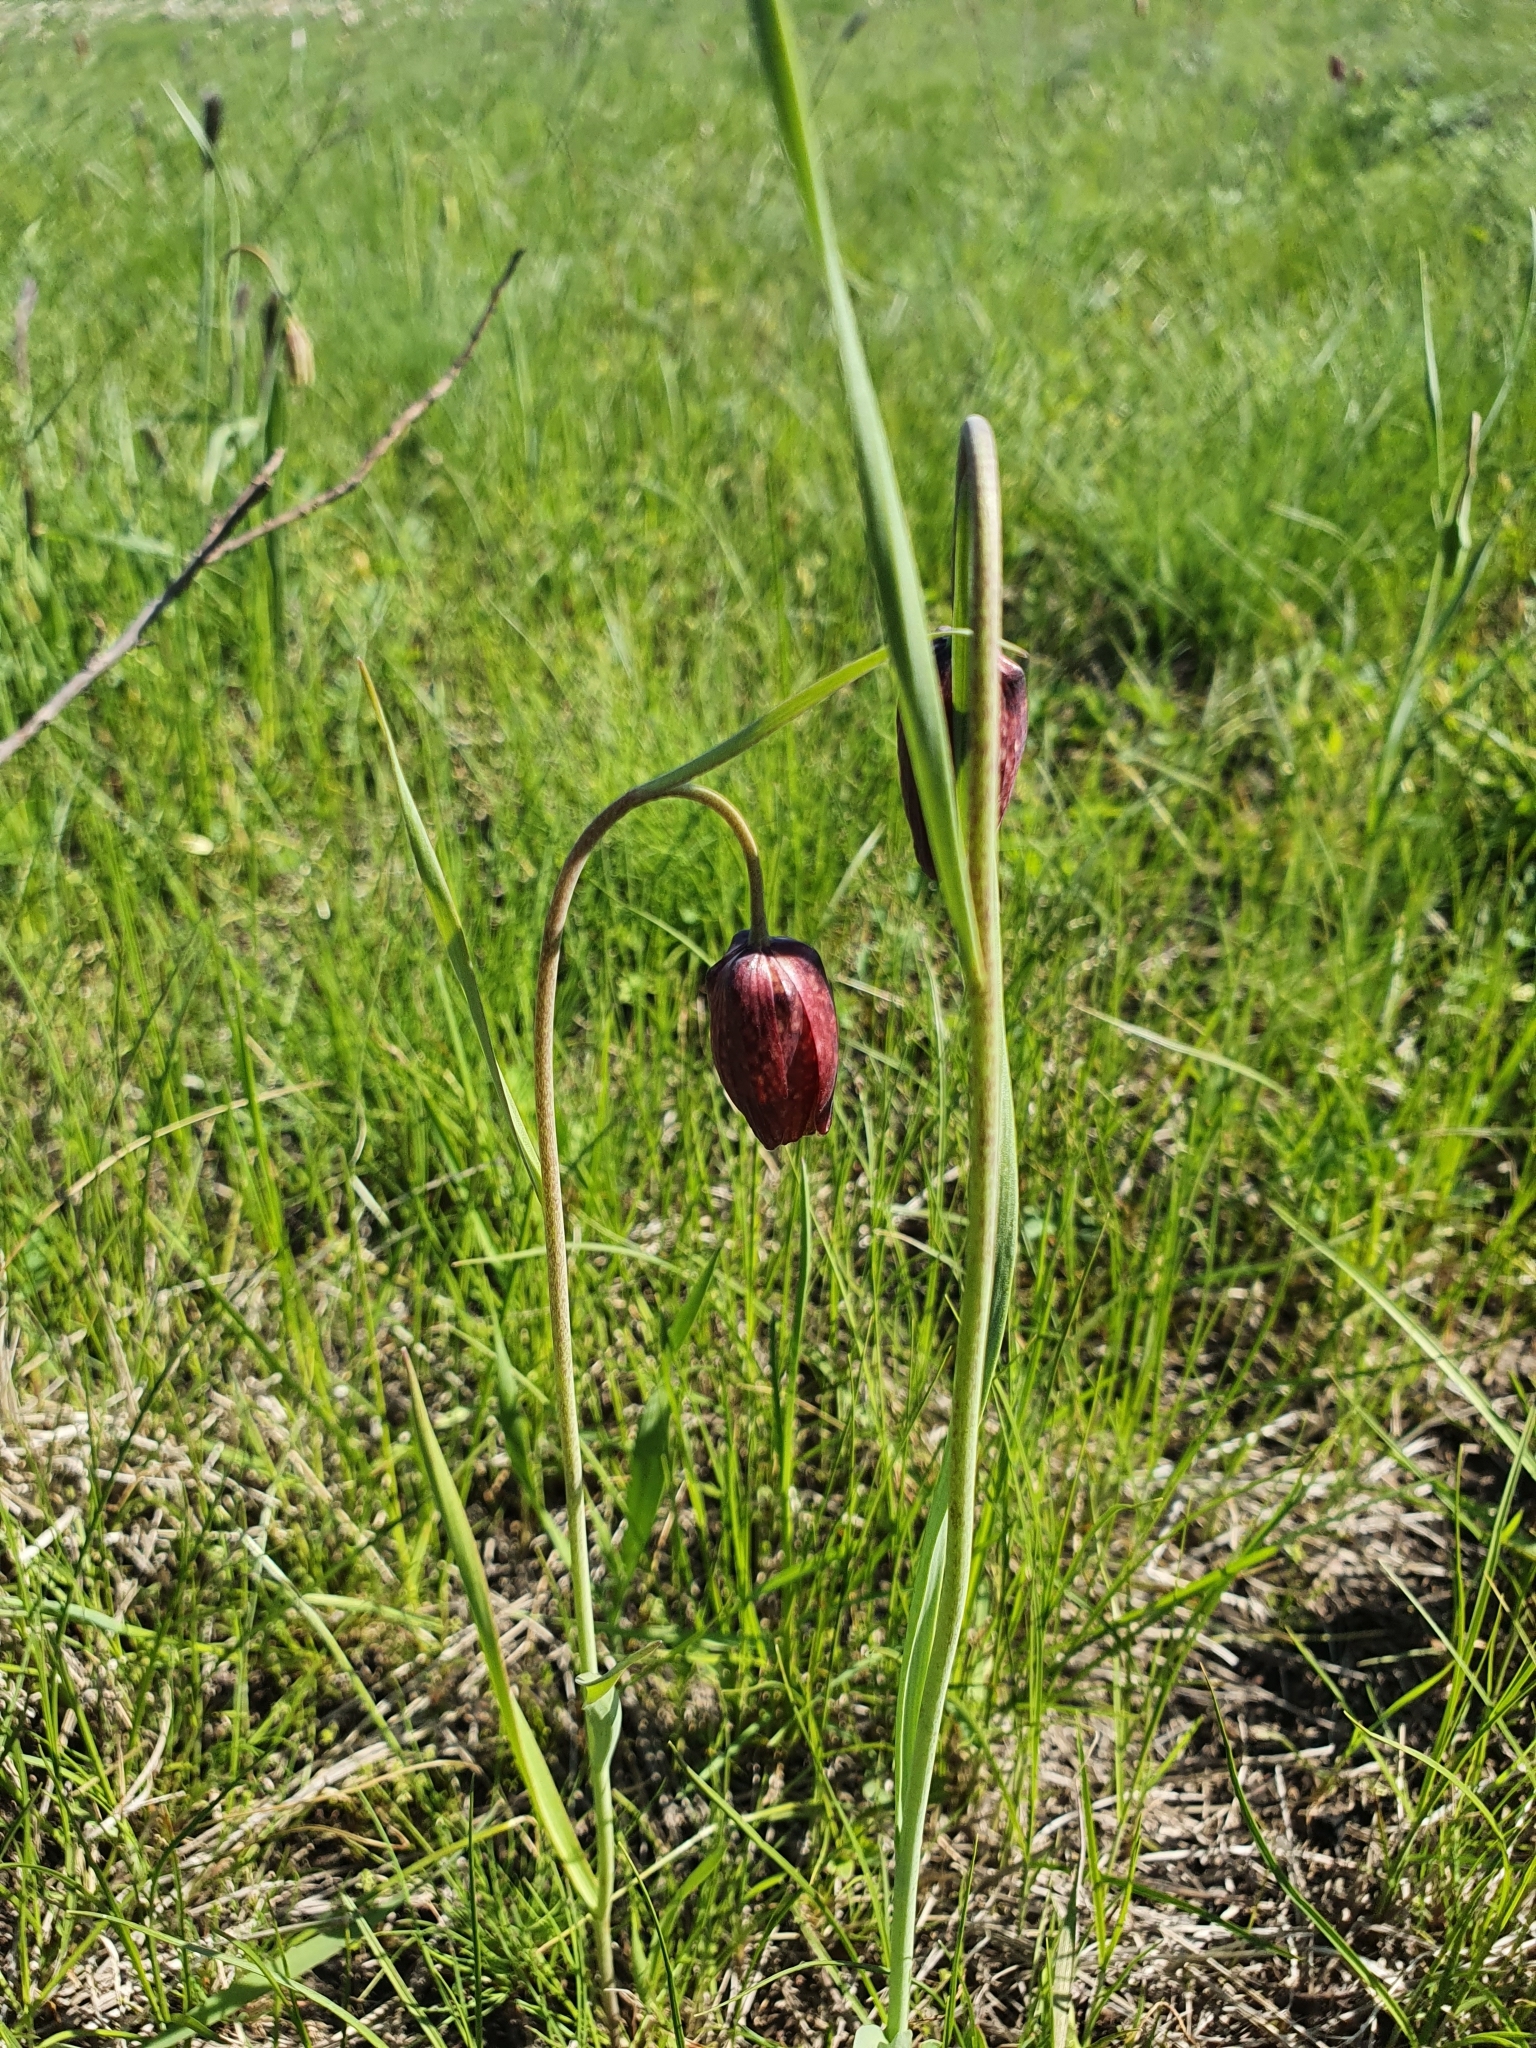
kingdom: Plantae
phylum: Tracheophyta
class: Liliopsida
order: Liliales
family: Liliaceae
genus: Fritillaria
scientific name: Fritillaria meleagroides
